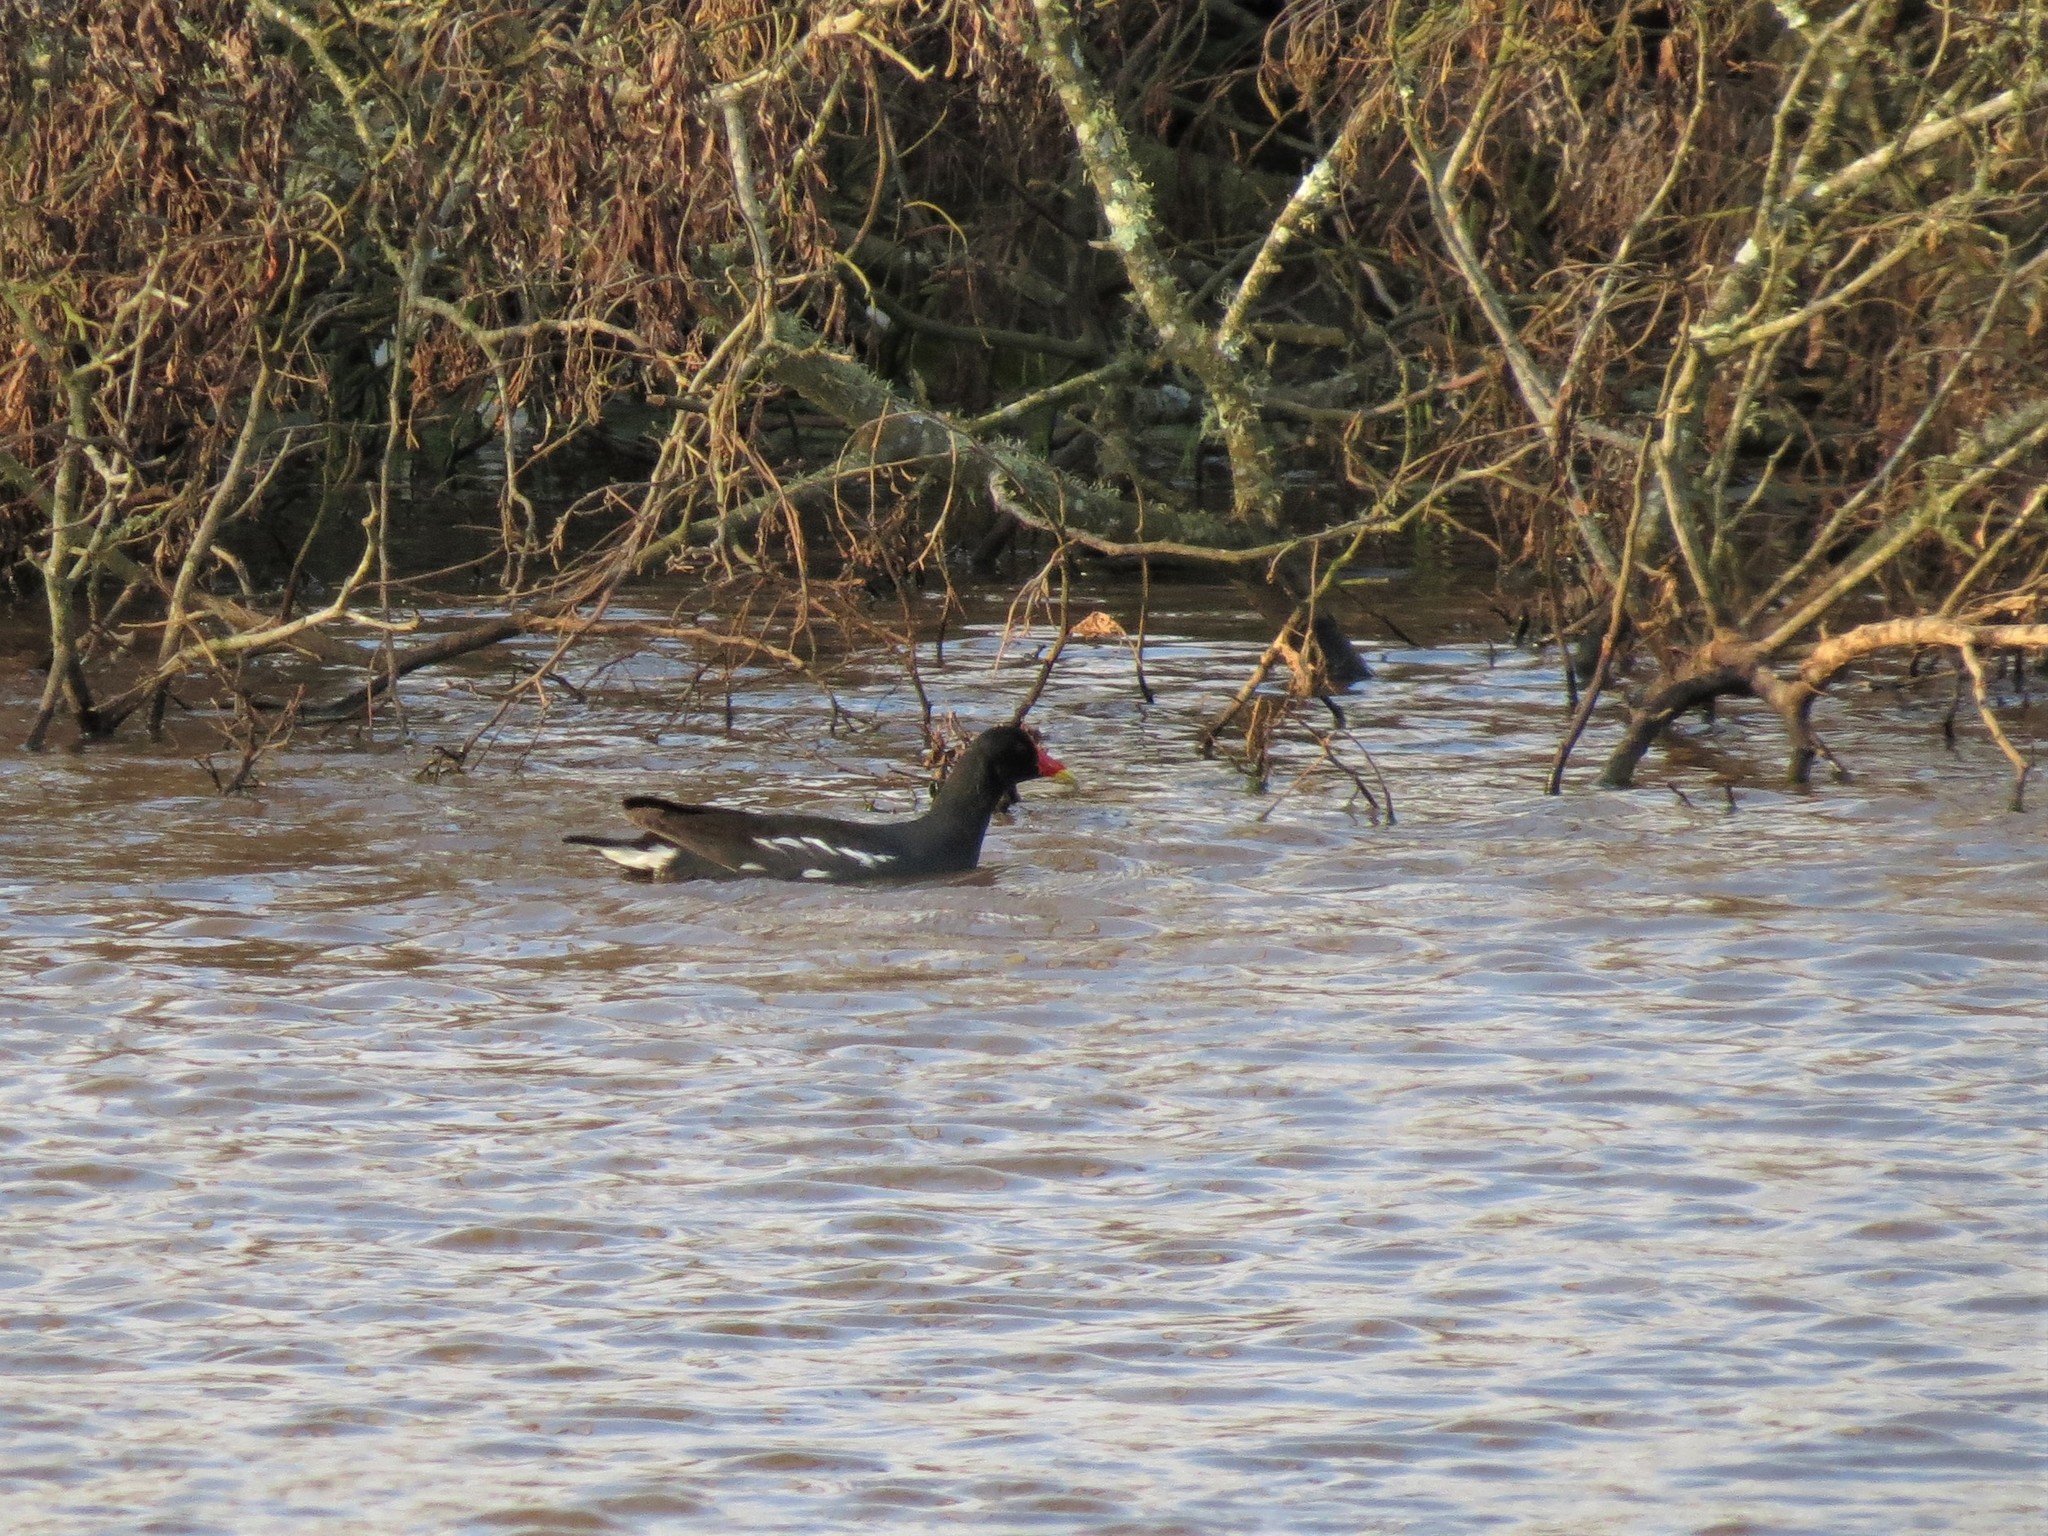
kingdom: Animalia
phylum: Chordata
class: Aves
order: Gruiformes
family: Rallidae
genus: Gallinula
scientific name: Gallinula chloropus
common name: Common moorhen
